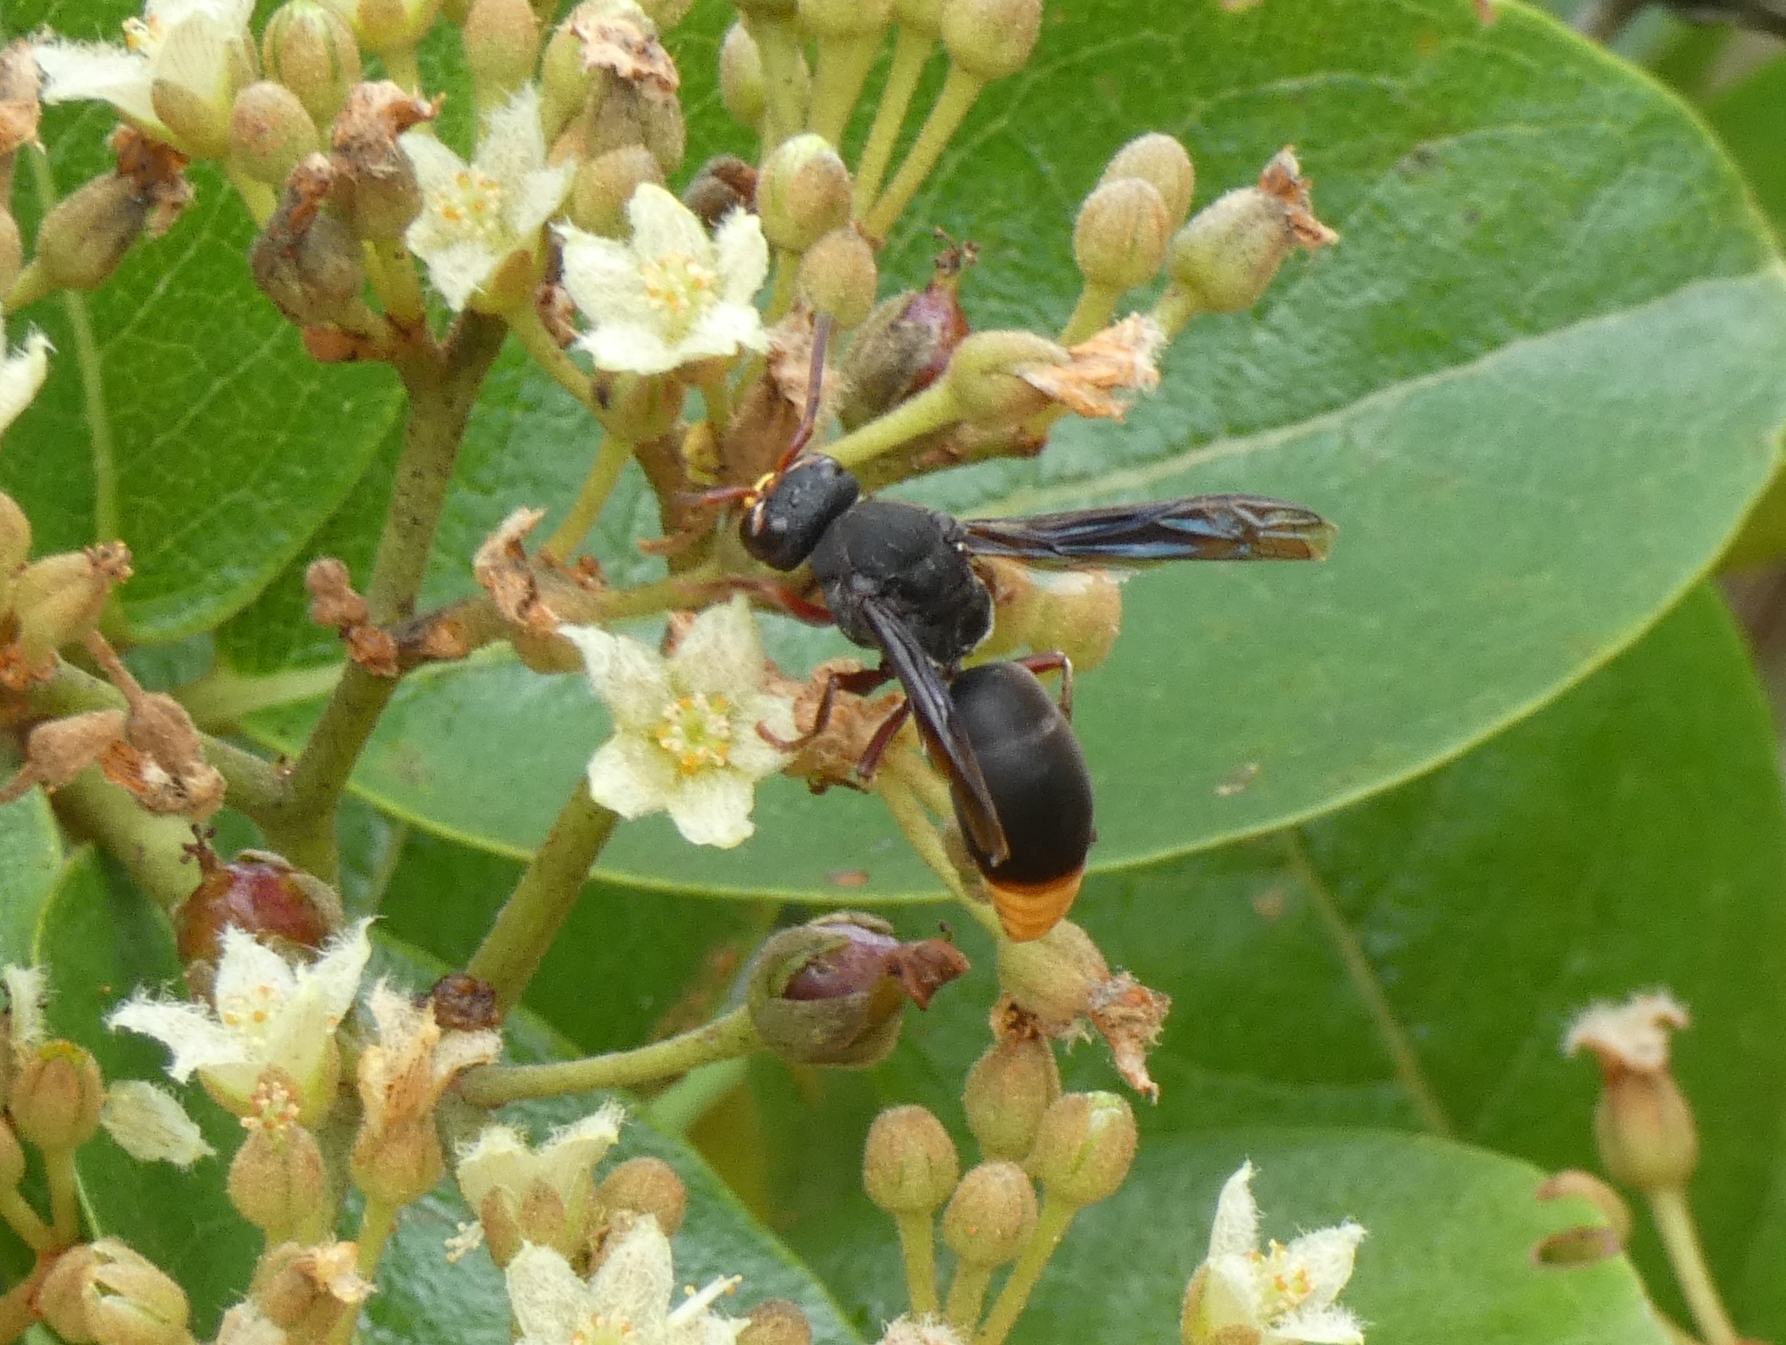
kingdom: Animalia
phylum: Arthropoda
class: Insecta
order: Hymenoptera
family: Eumenidae
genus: Tricarinodynerus
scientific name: Tricarinodynerus
